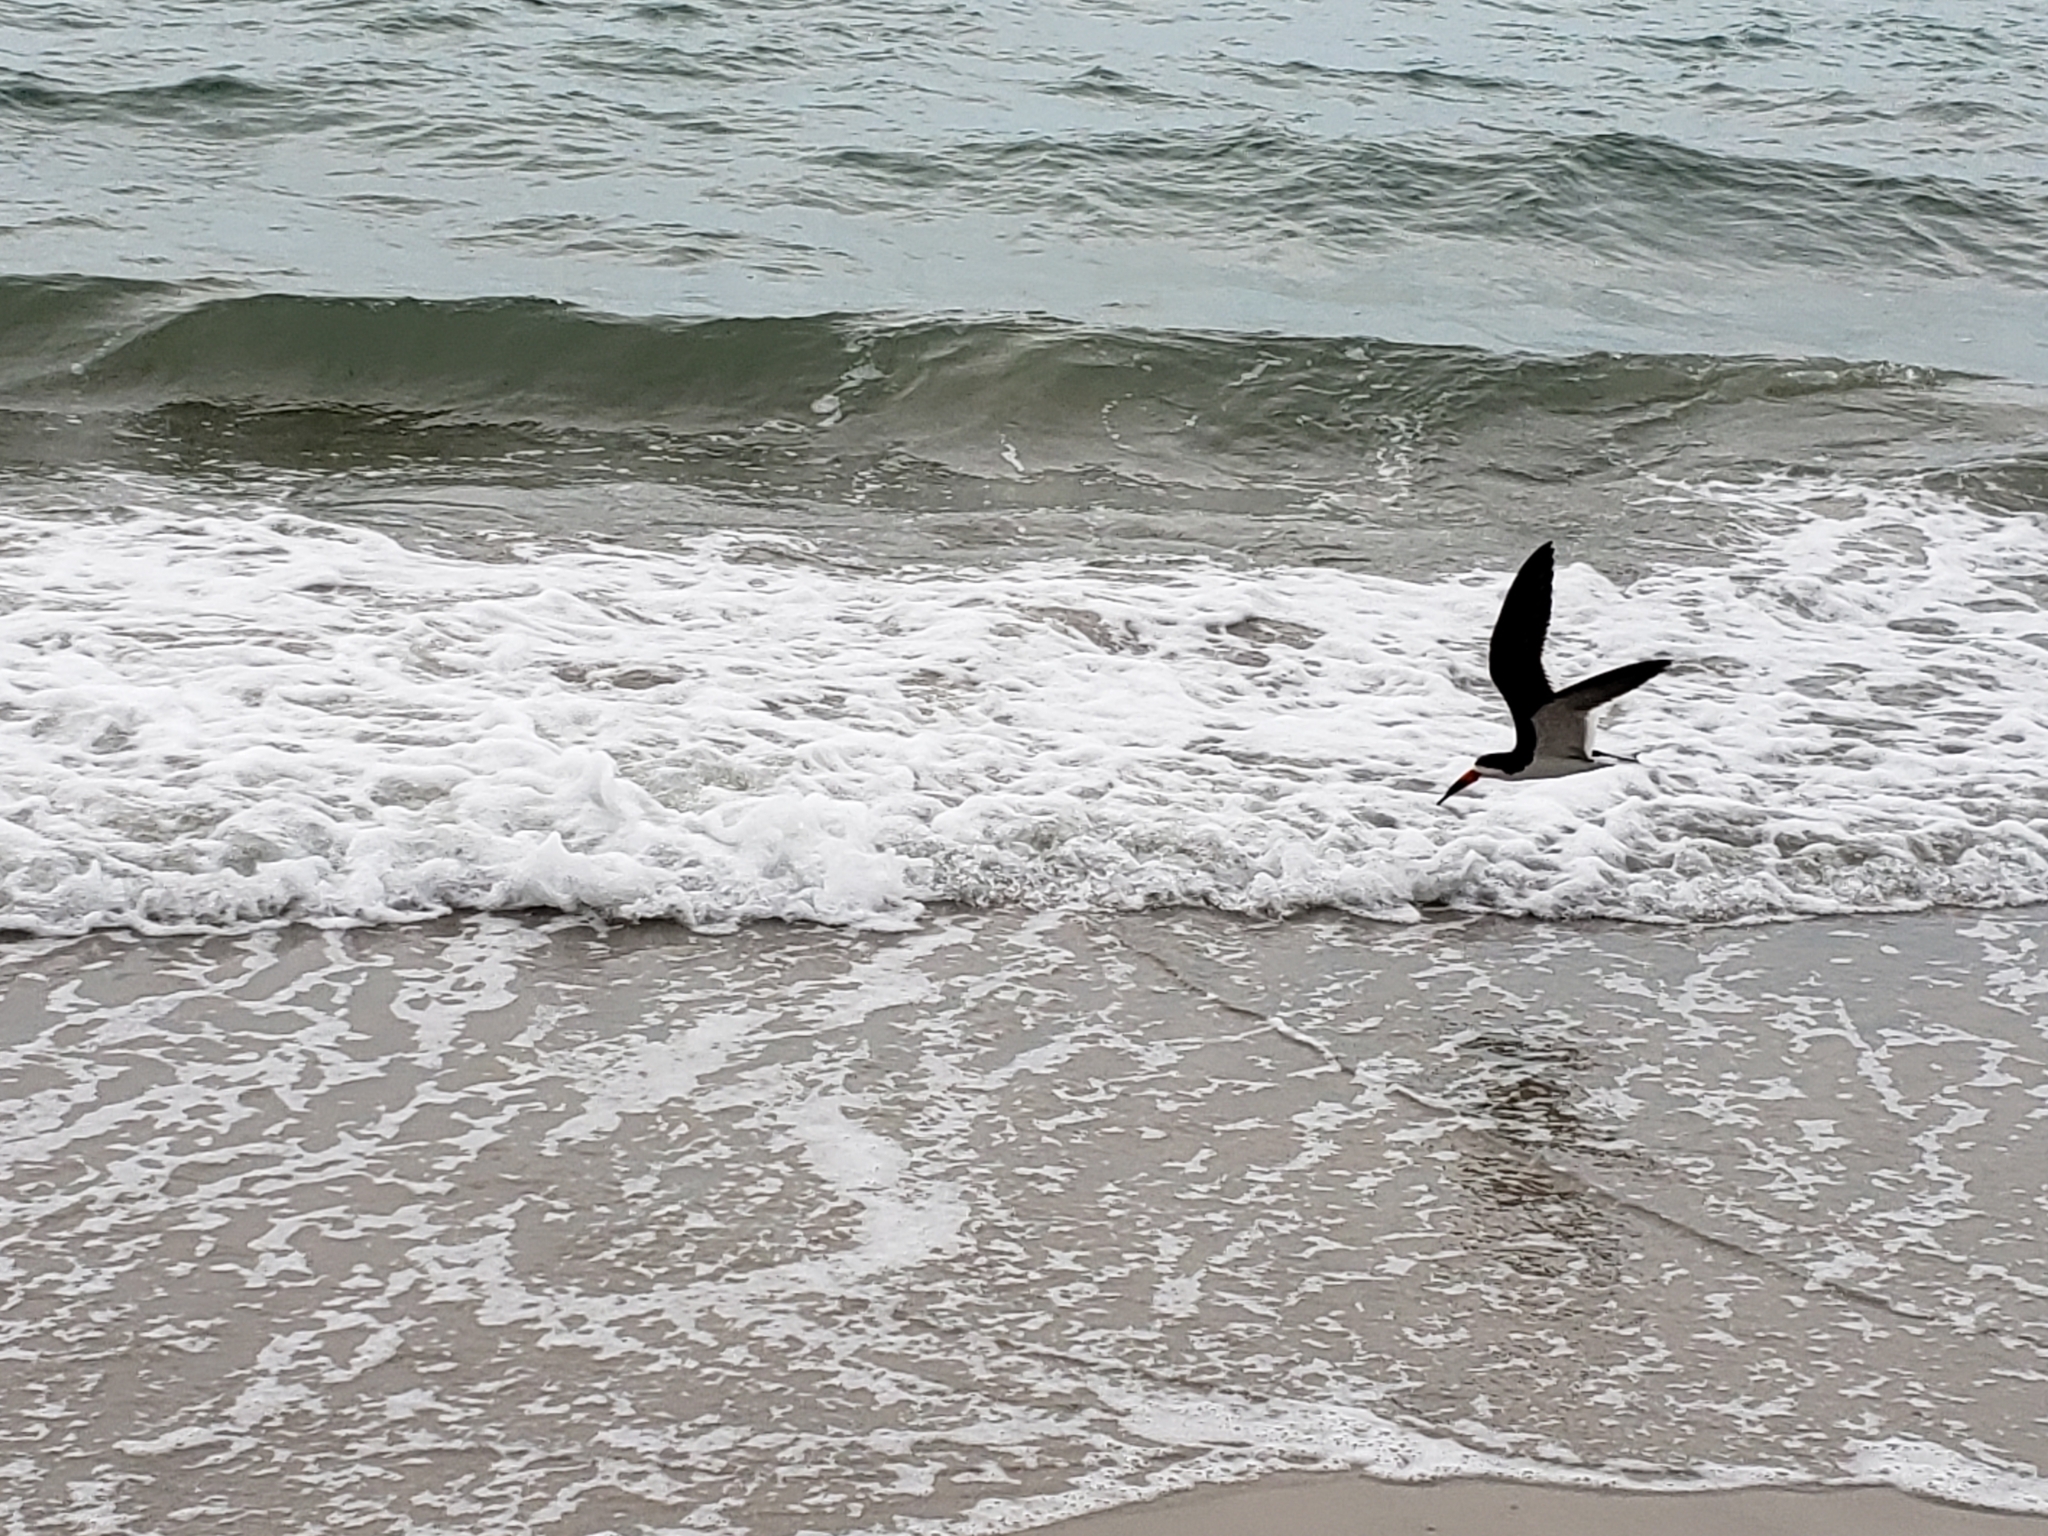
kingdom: Animalia
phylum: Chordata
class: Aves
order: Charadriiformes
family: Laridae
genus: Rynchops
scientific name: Rynchops niger
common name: Black skimmer
